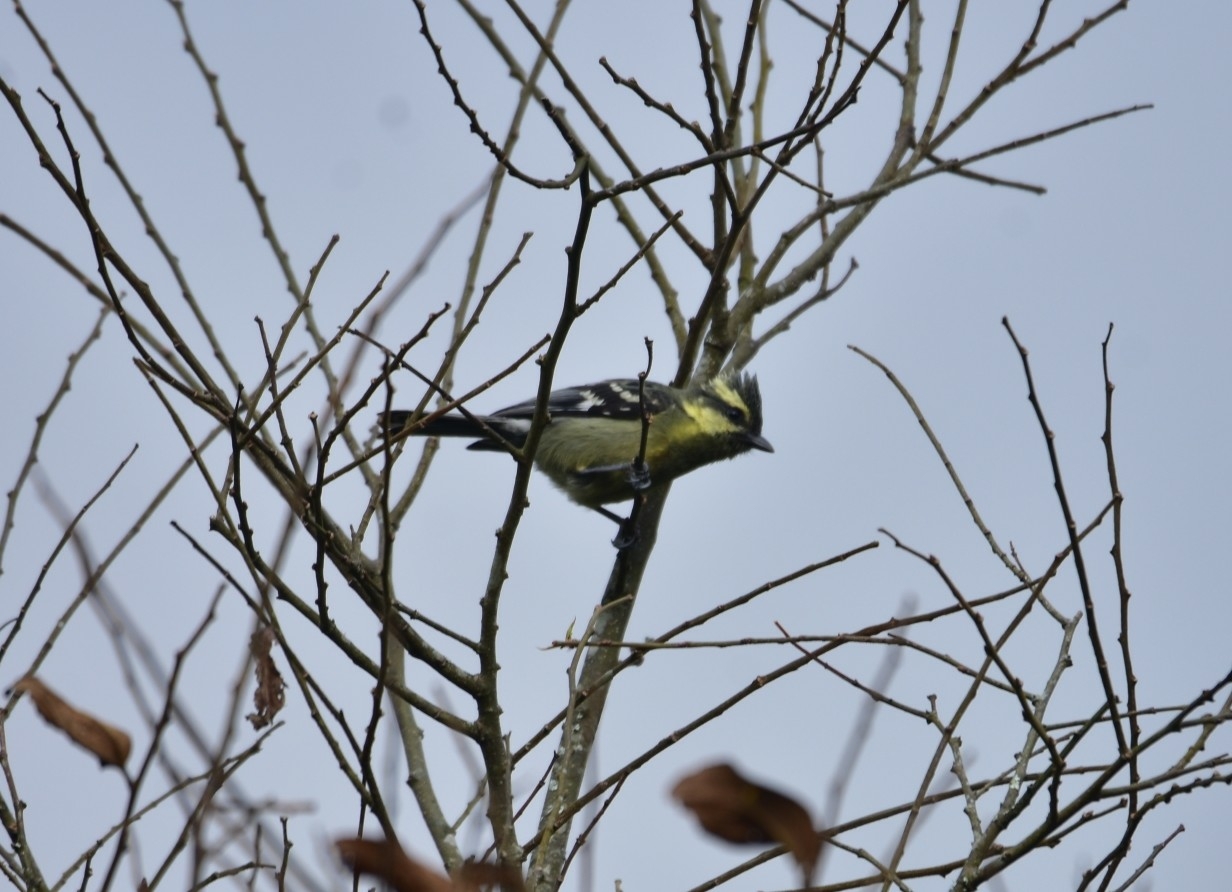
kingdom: Animalia
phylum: Chordata
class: Aves
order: Passeriformes
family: Paridae
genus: Parus
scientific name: Parus aplonotus
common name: Indian black-lored tit
